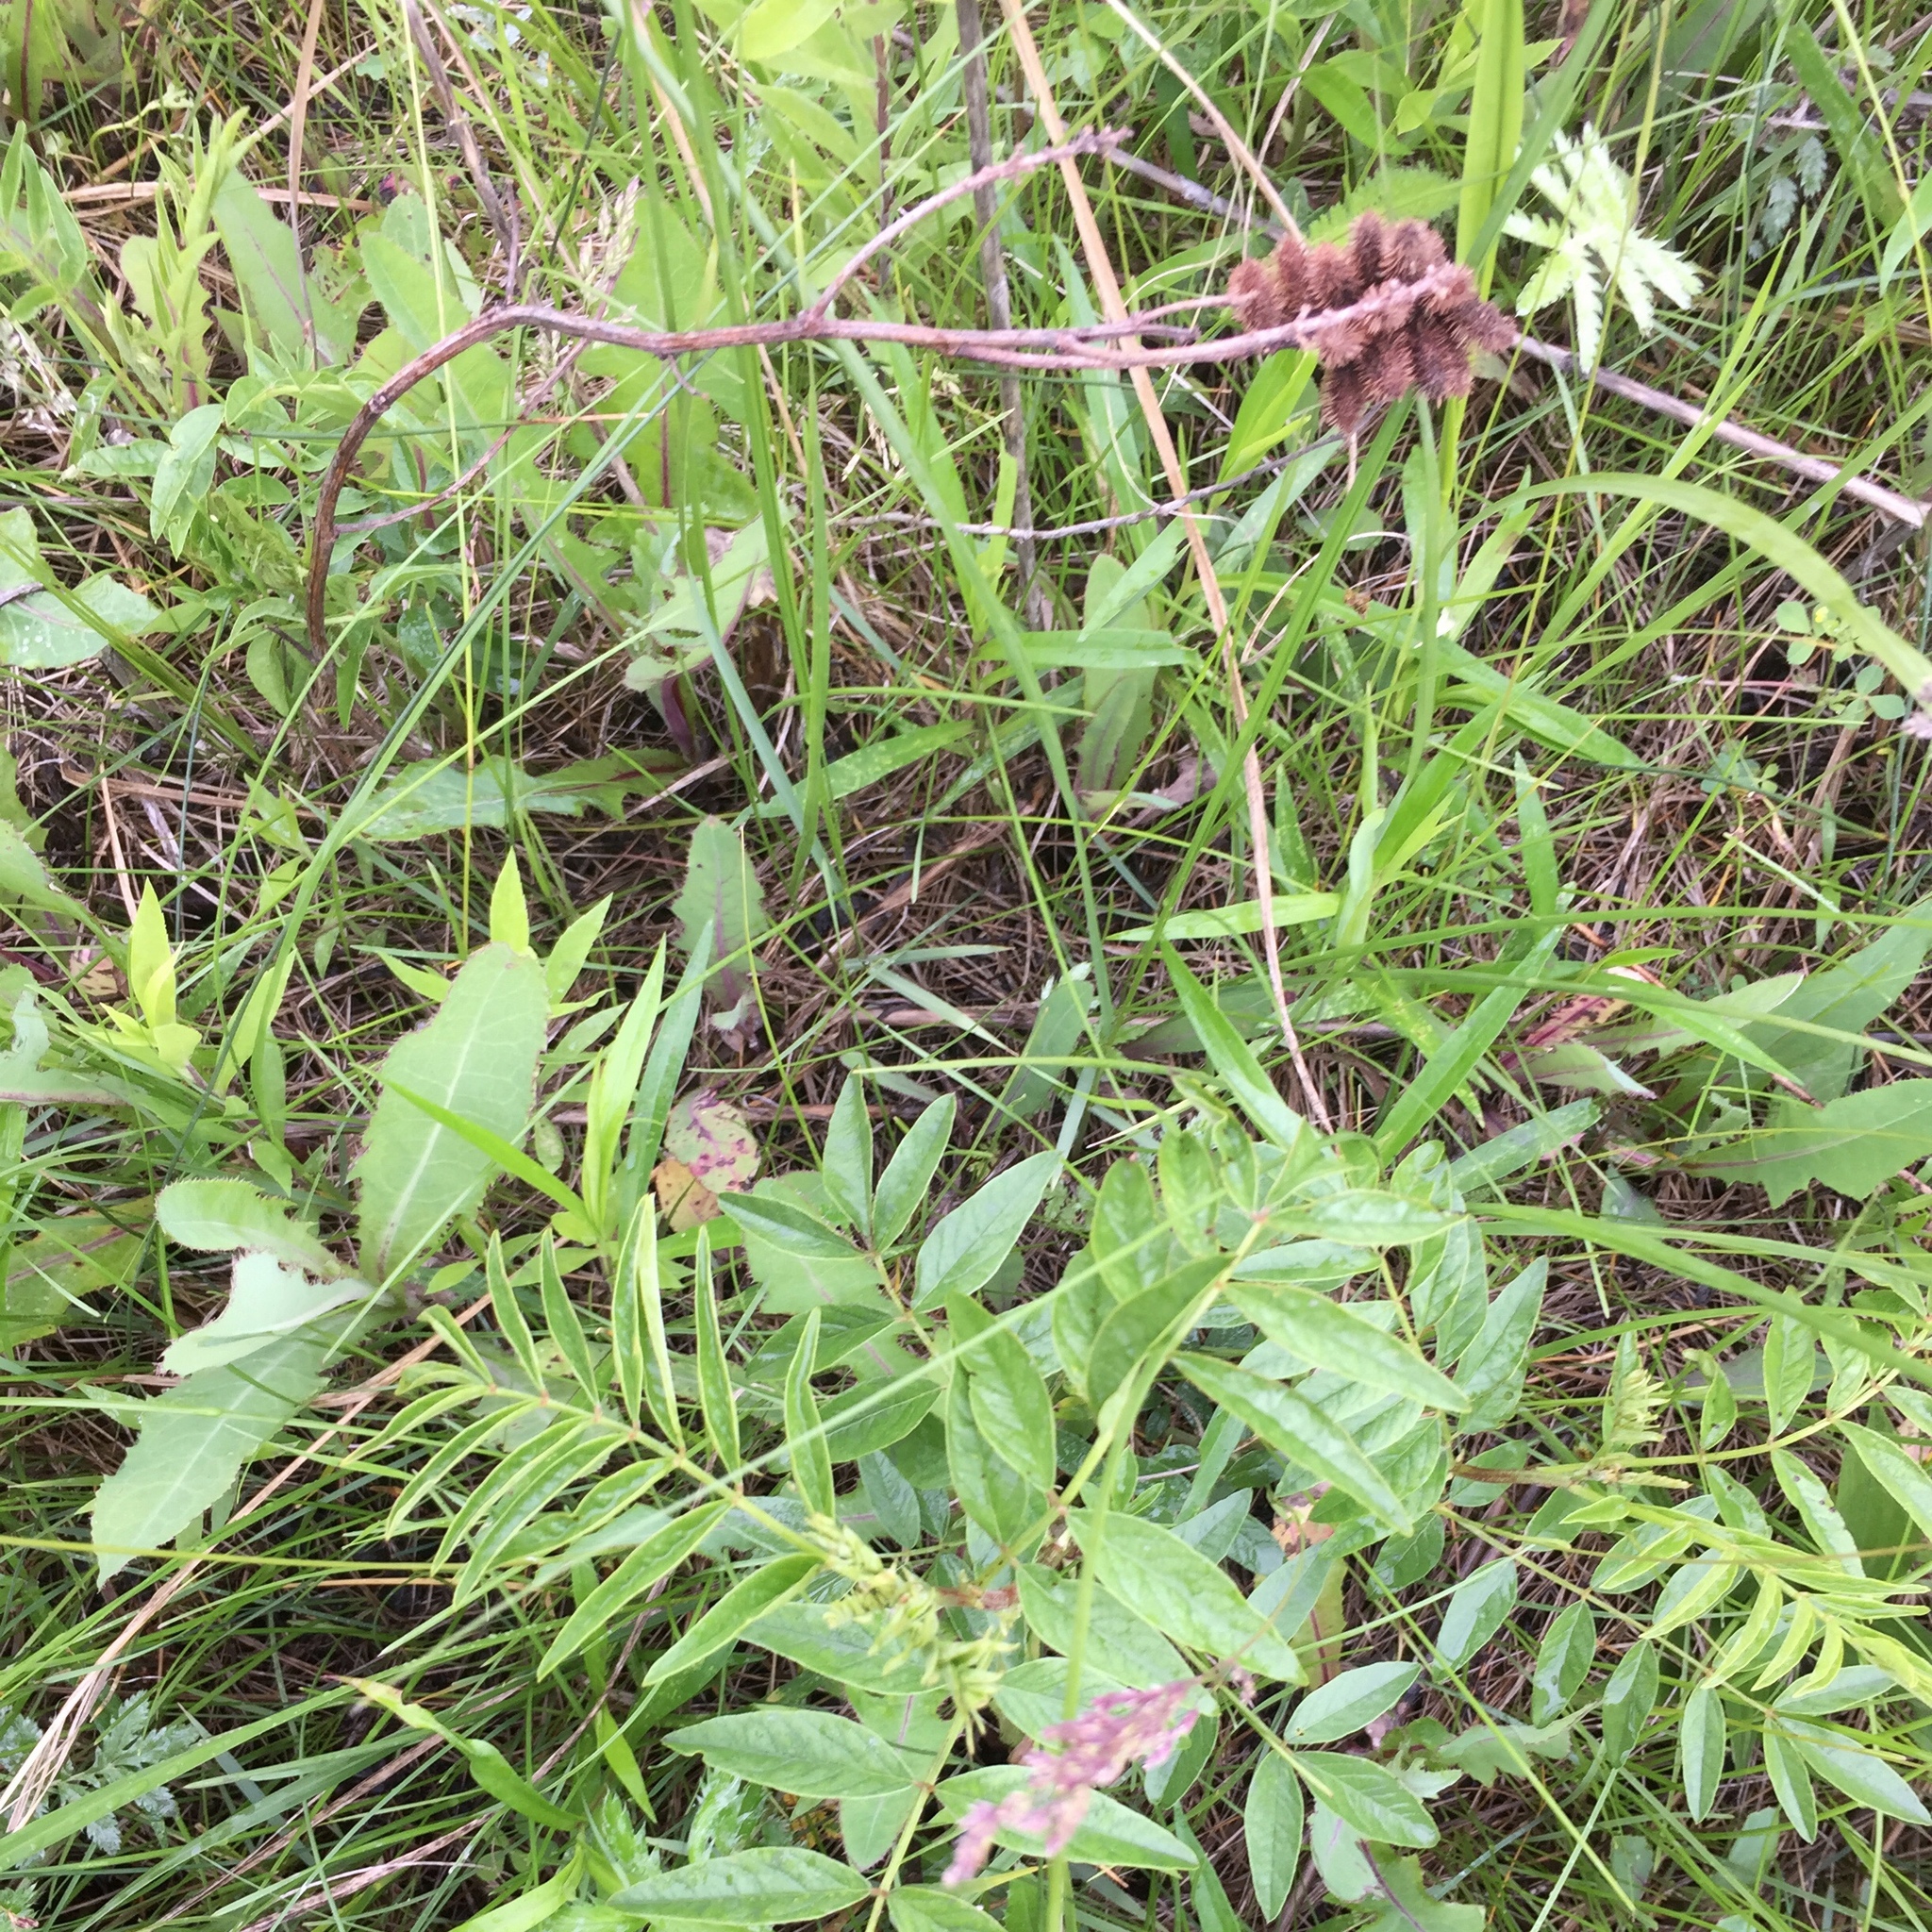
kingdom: Plantae
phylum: Tracheophyta
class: Magnoliopsida
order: Fabales
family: Fabaceae
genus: Glycyrrhiza
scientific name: Glycyrrhiza lepidota
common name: American liquorice
